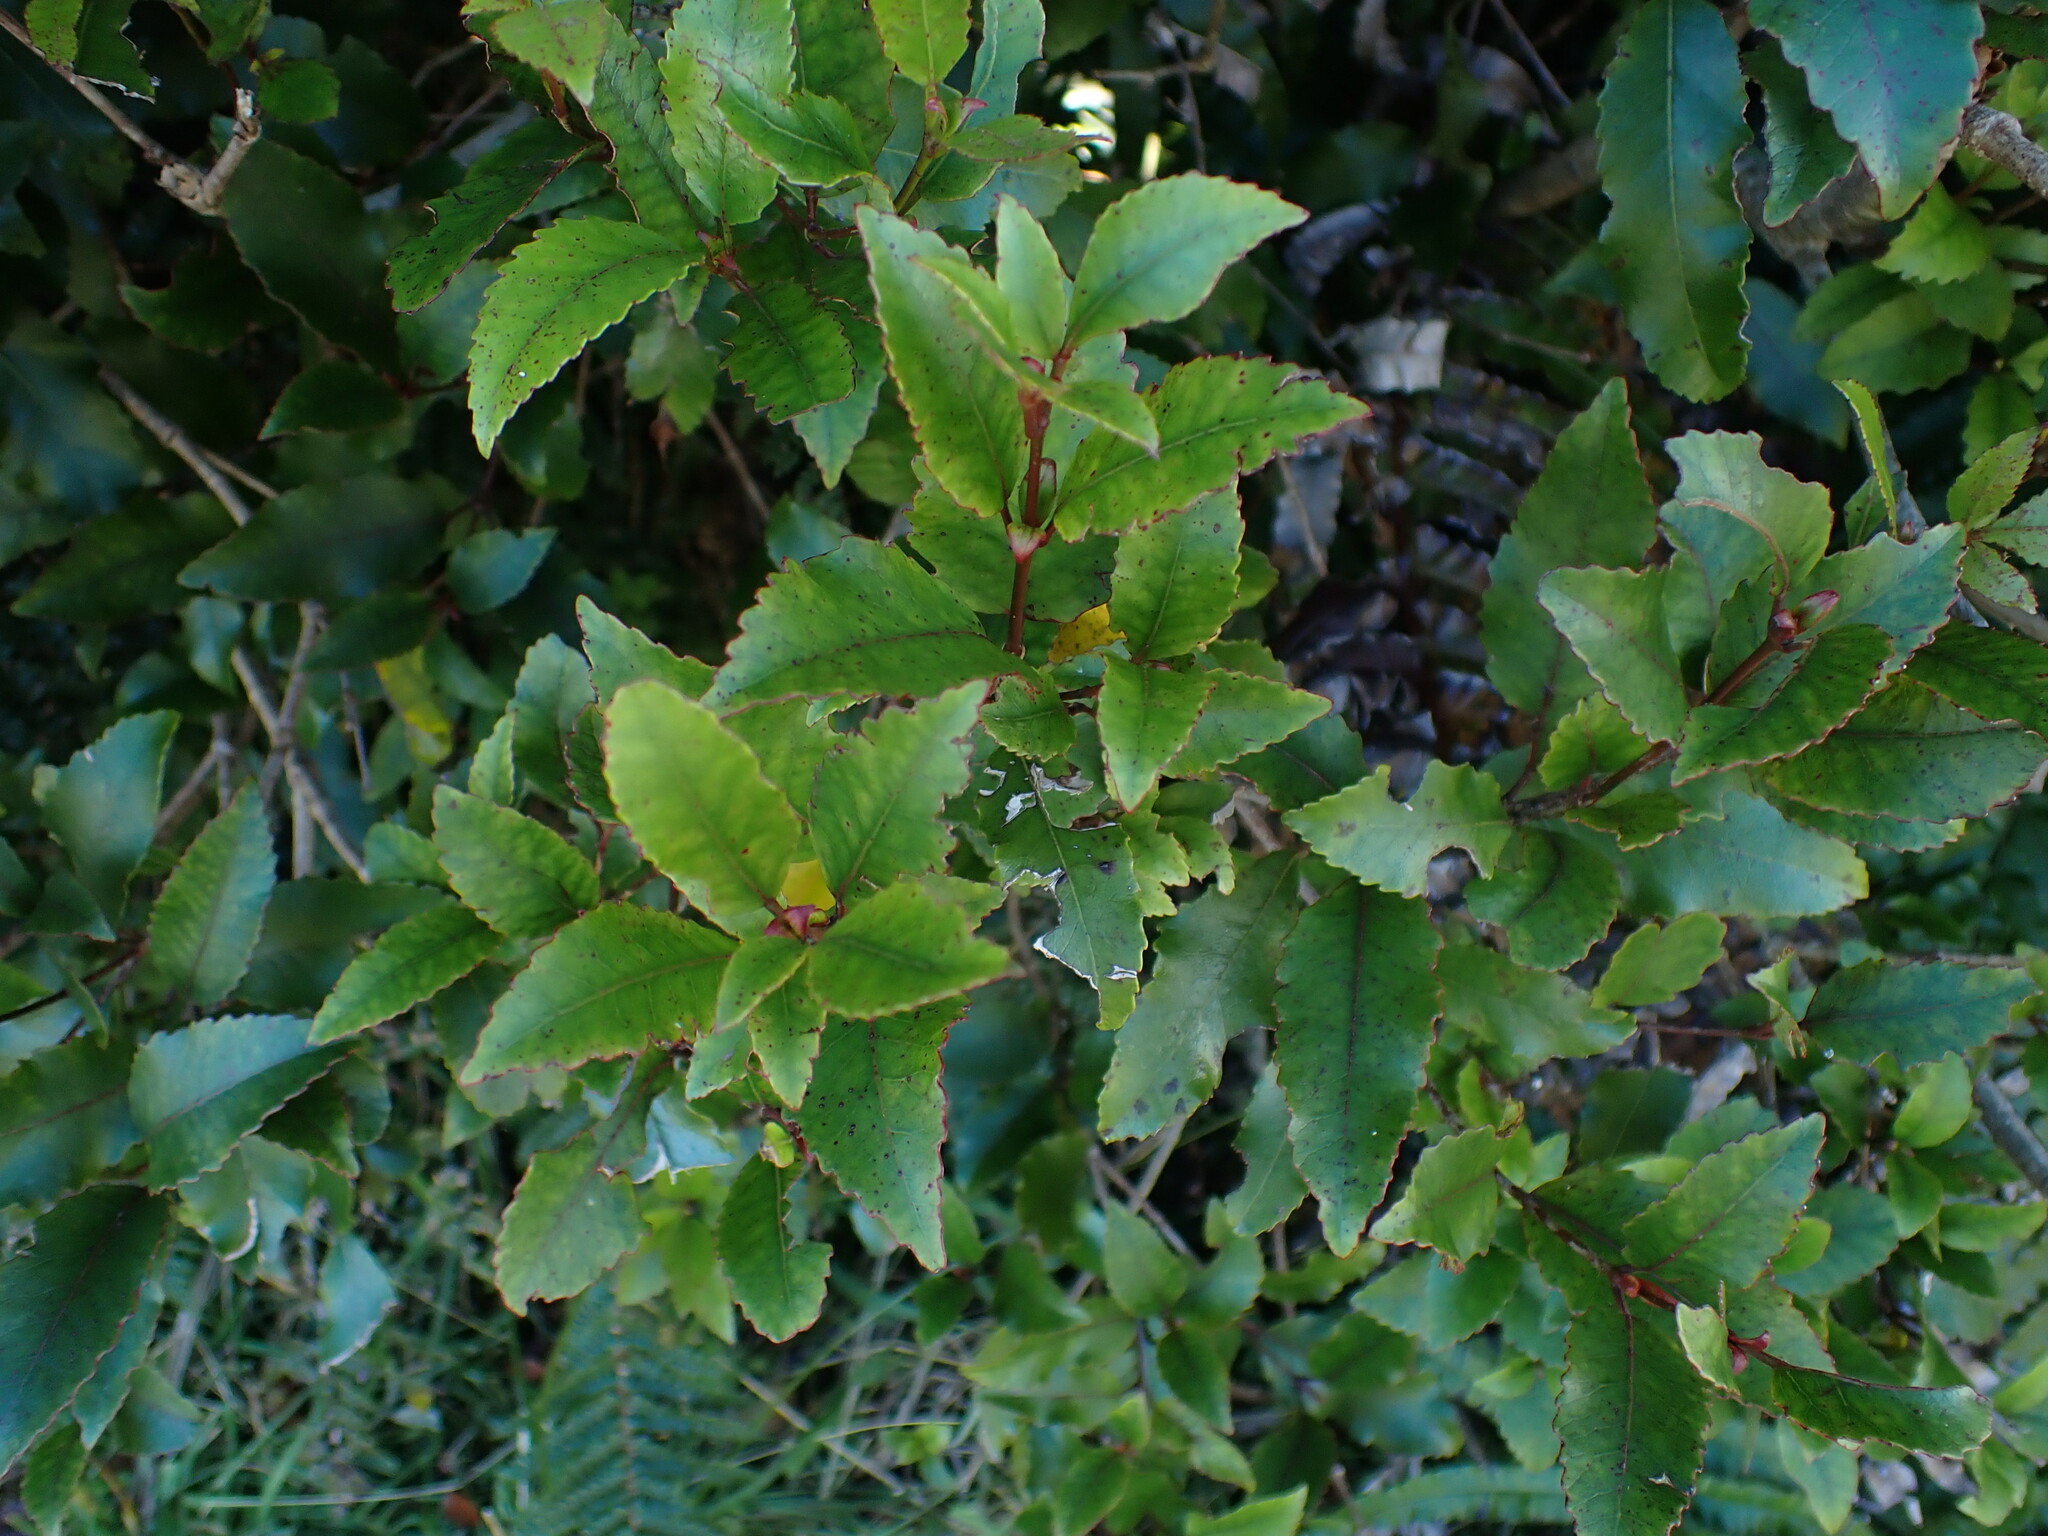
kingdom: Plantae
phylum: Tracheophyta
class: Magnoliopsida
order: Oxalidales
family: Cunoniaceae
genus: Pterophylla
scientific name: Pterophylla racemosa
